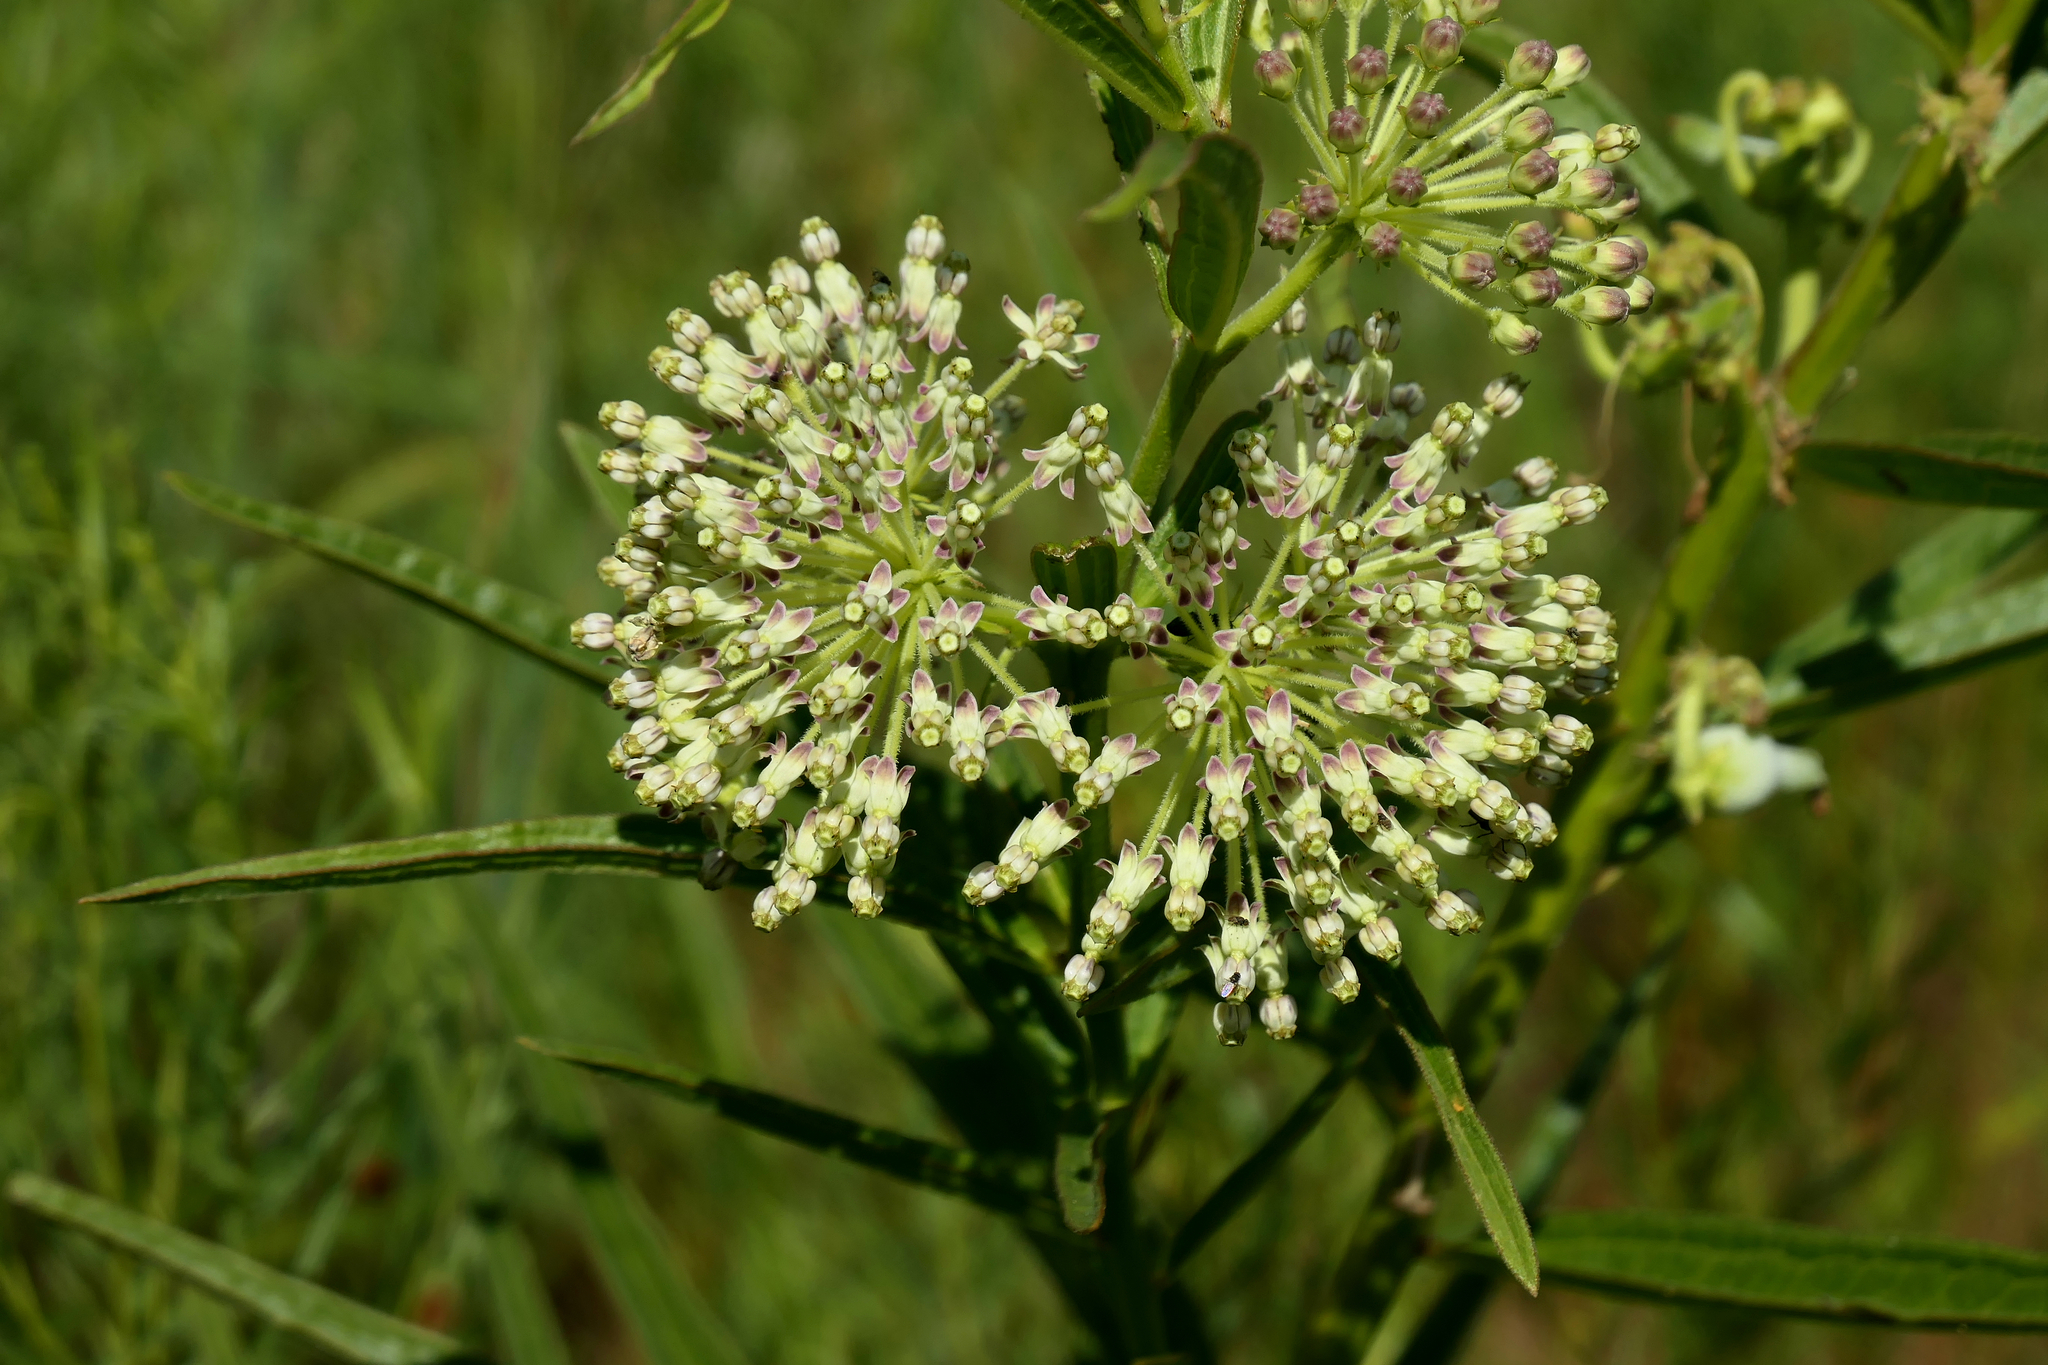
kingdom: Plantae
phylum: Tracheophyta
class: Magnoliopsida
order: Gentianales
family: Apocynaceae
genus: Asclepias
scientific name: Asclepias hirtella
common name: Prairie milkweed
